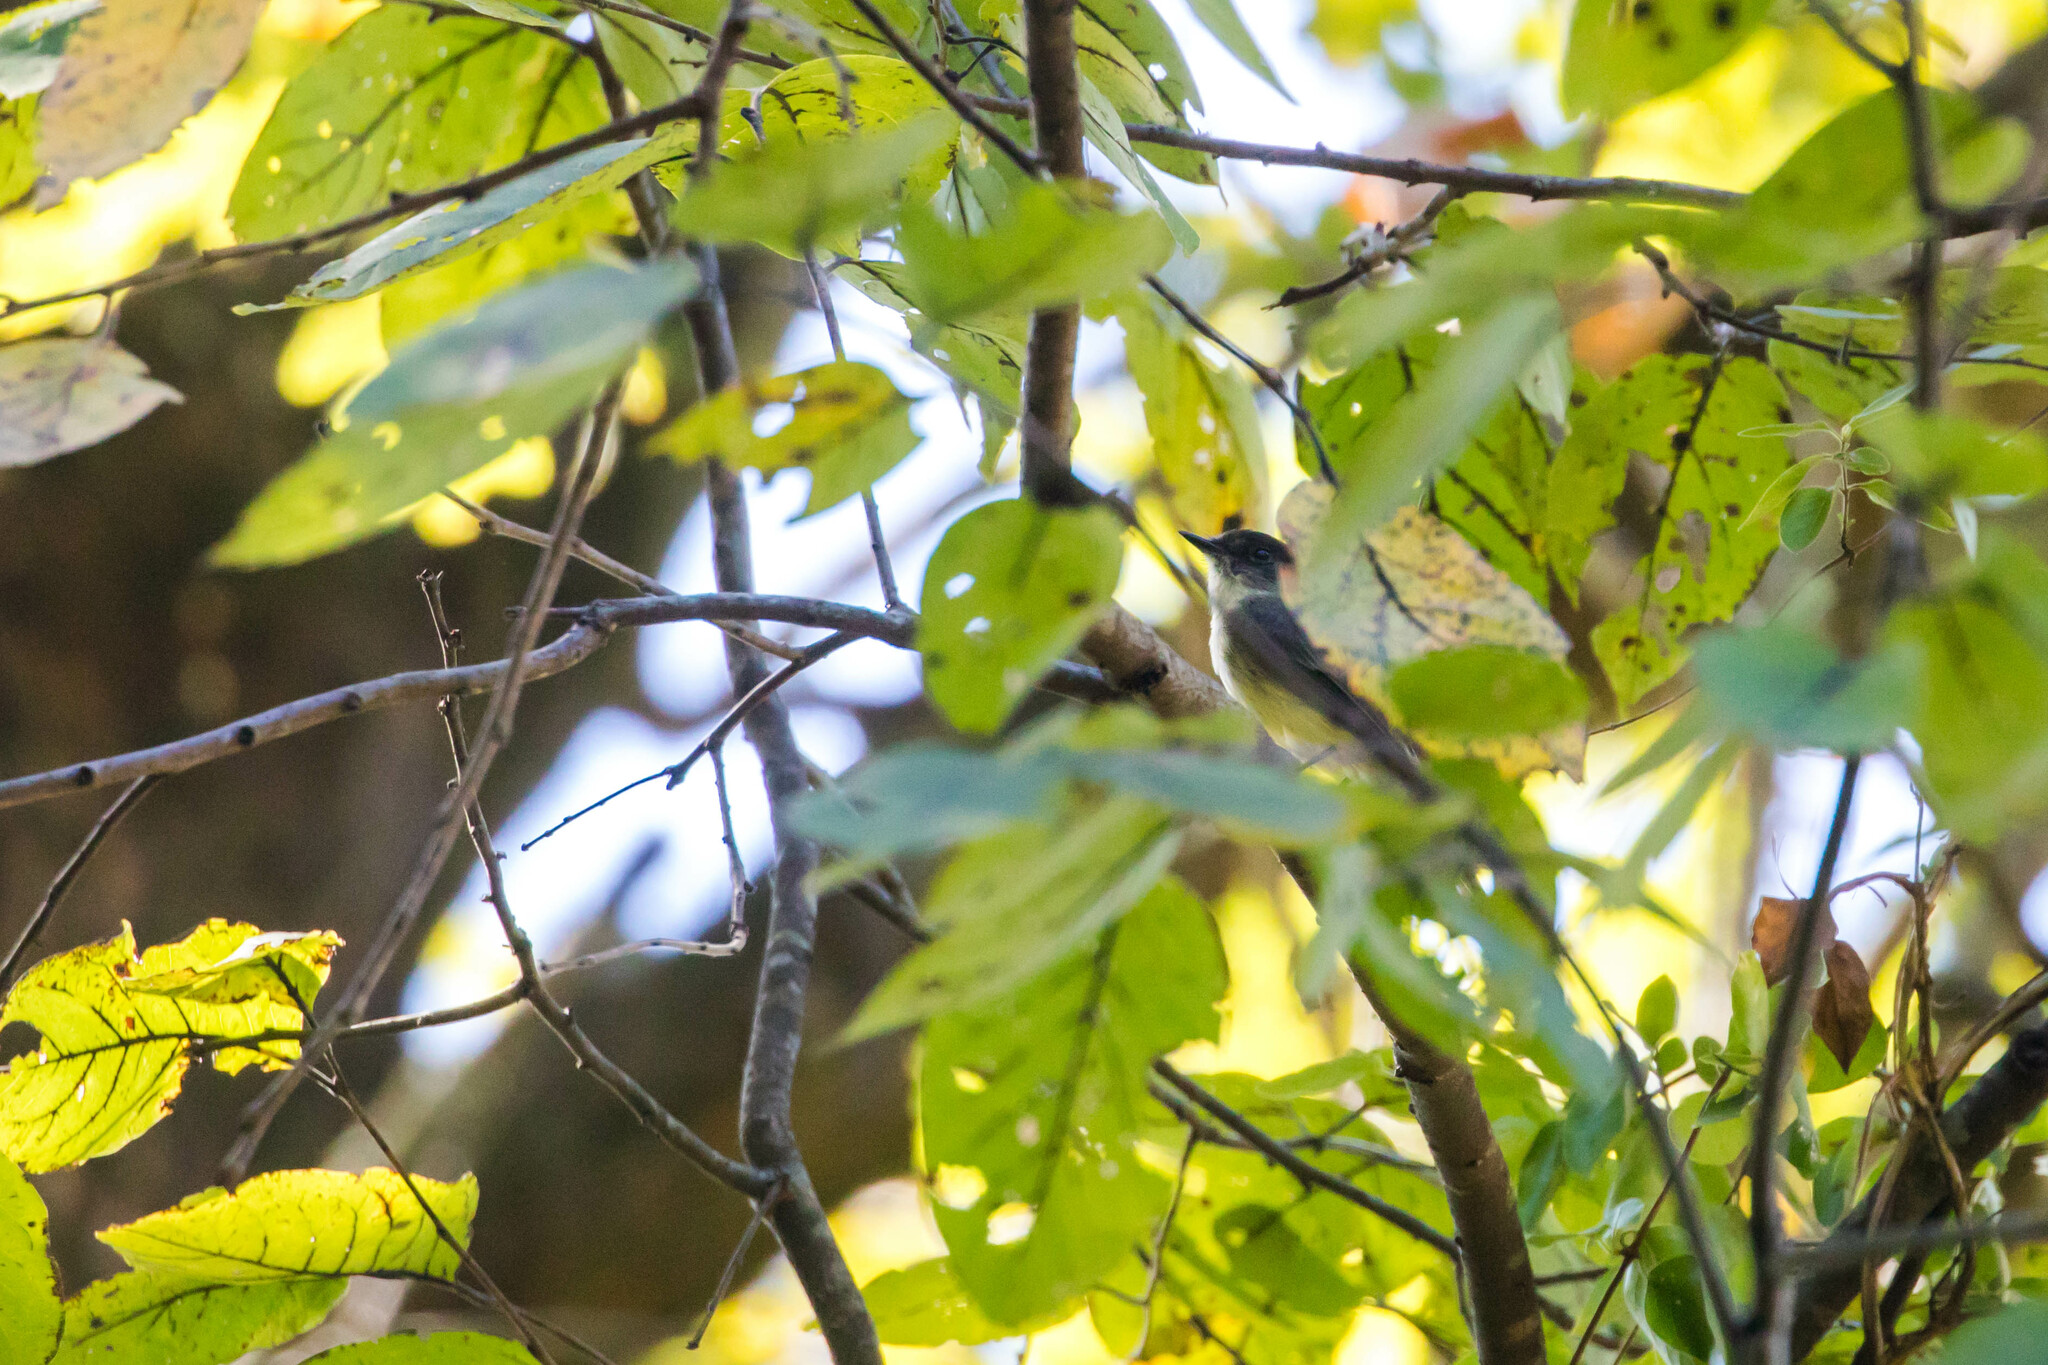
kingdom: Animalia
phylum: Chordata
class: Aves
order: Passeriformes
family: Tyrannidae
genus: Sayornis
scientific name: Sayornis phoebe
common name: Eastern phoebe
